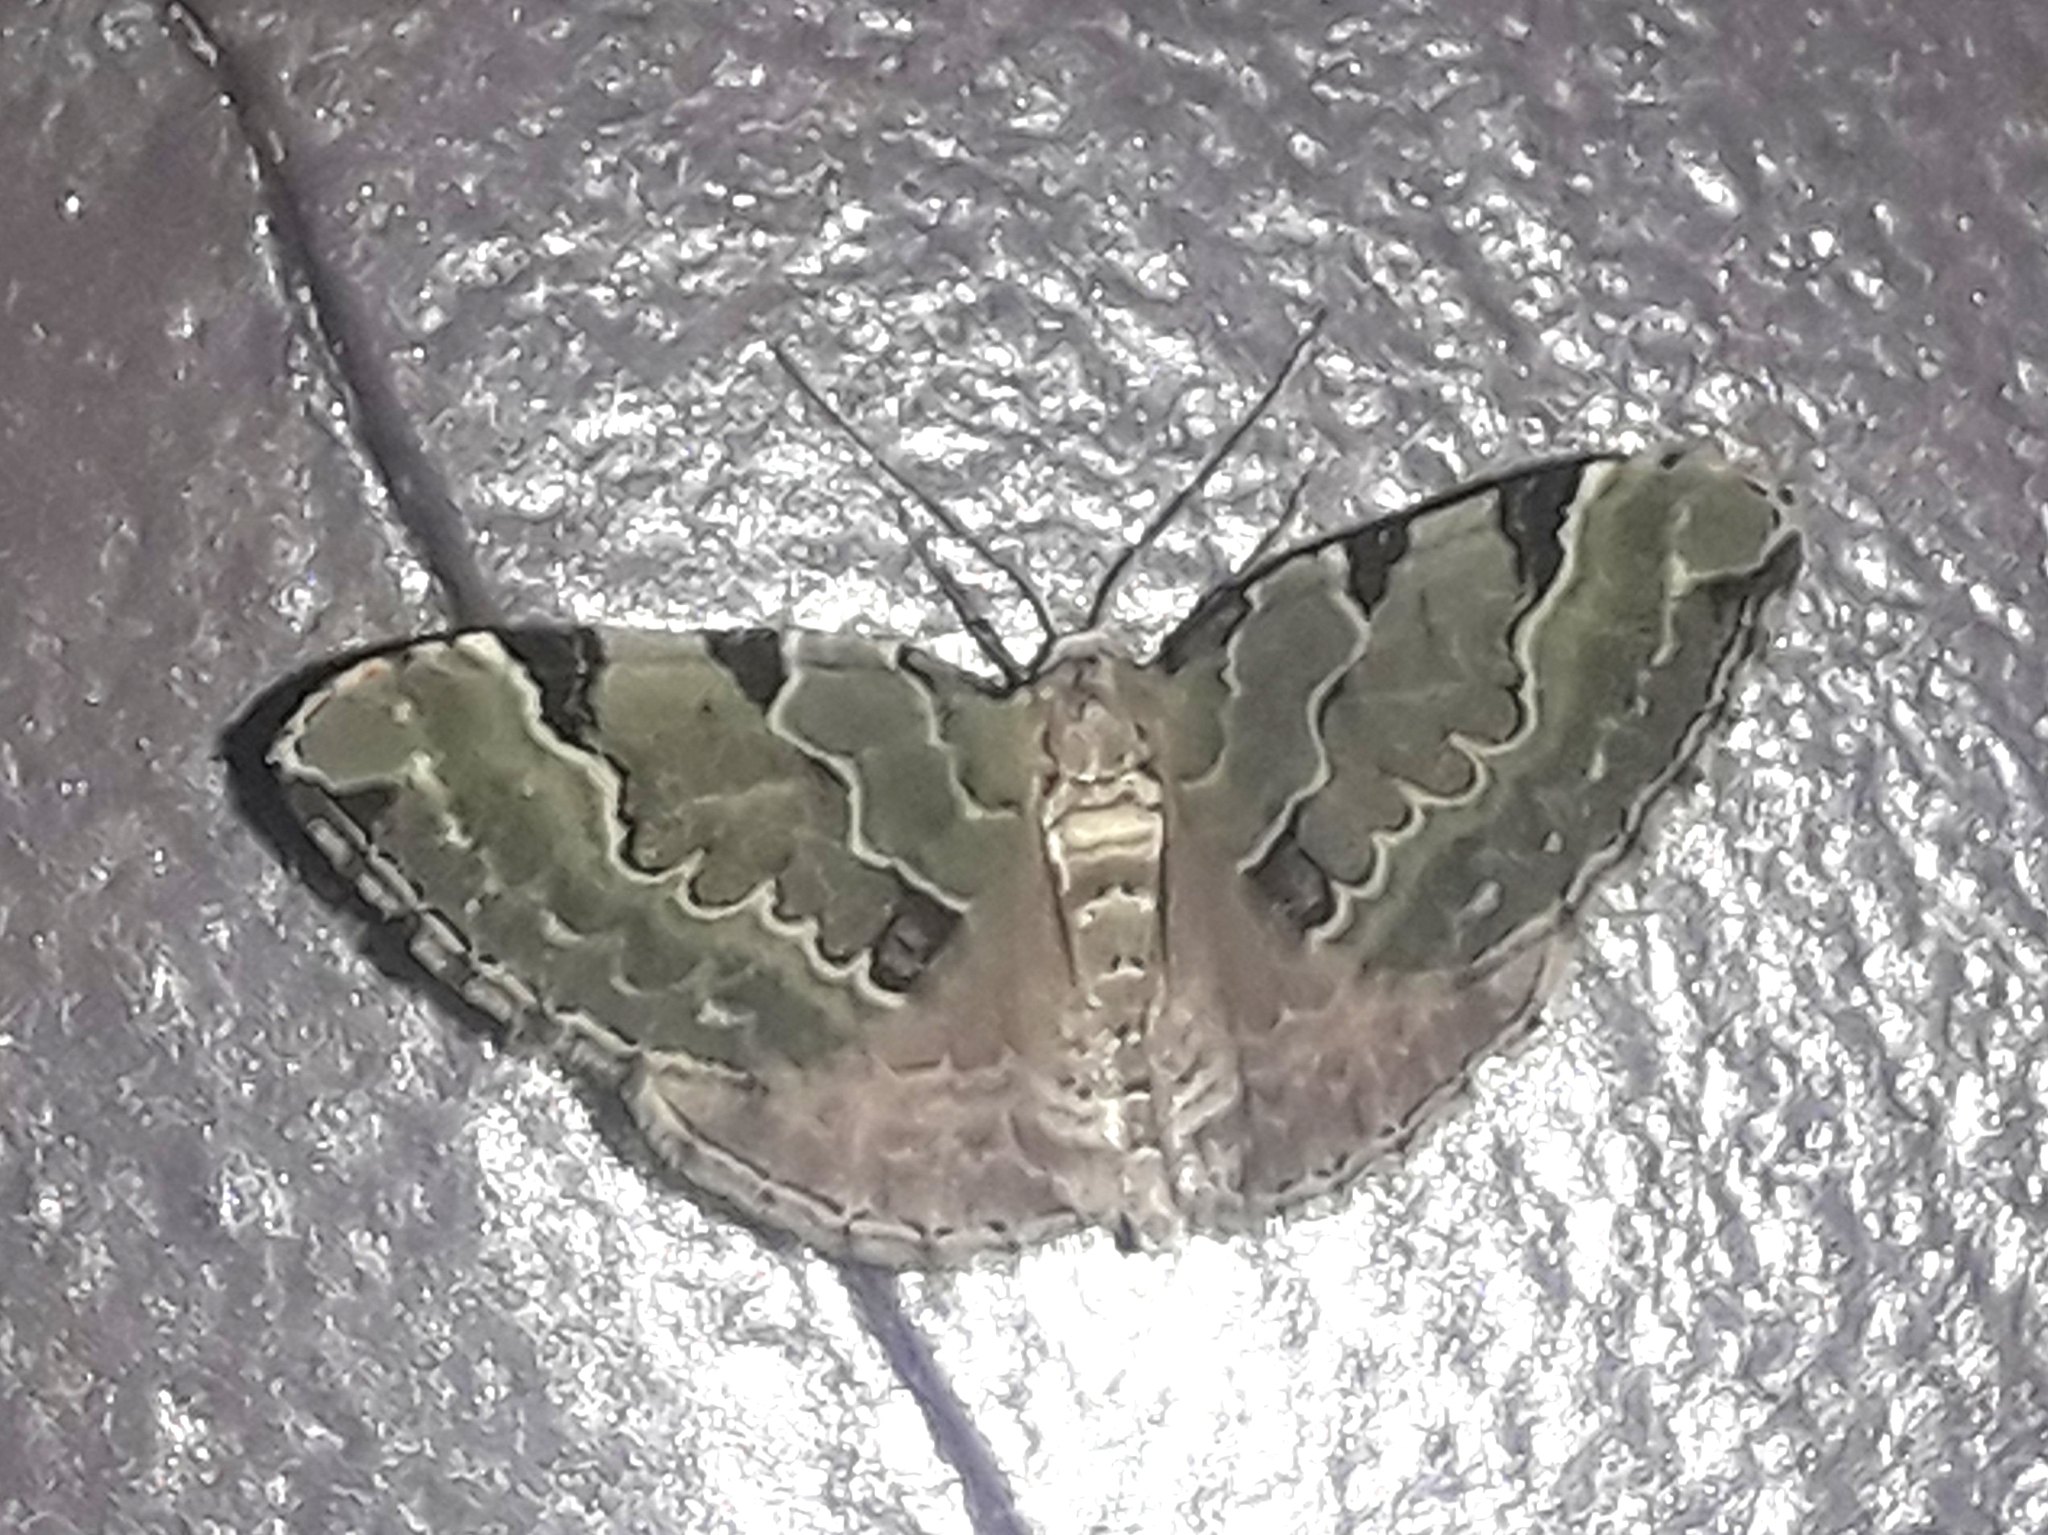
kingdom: Animalia
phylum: Arthropoda
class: Insecta
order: Lepidoptera
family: Geometridae
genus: Colostygia
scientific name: Colostygia pectinataria
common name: Green carpet
